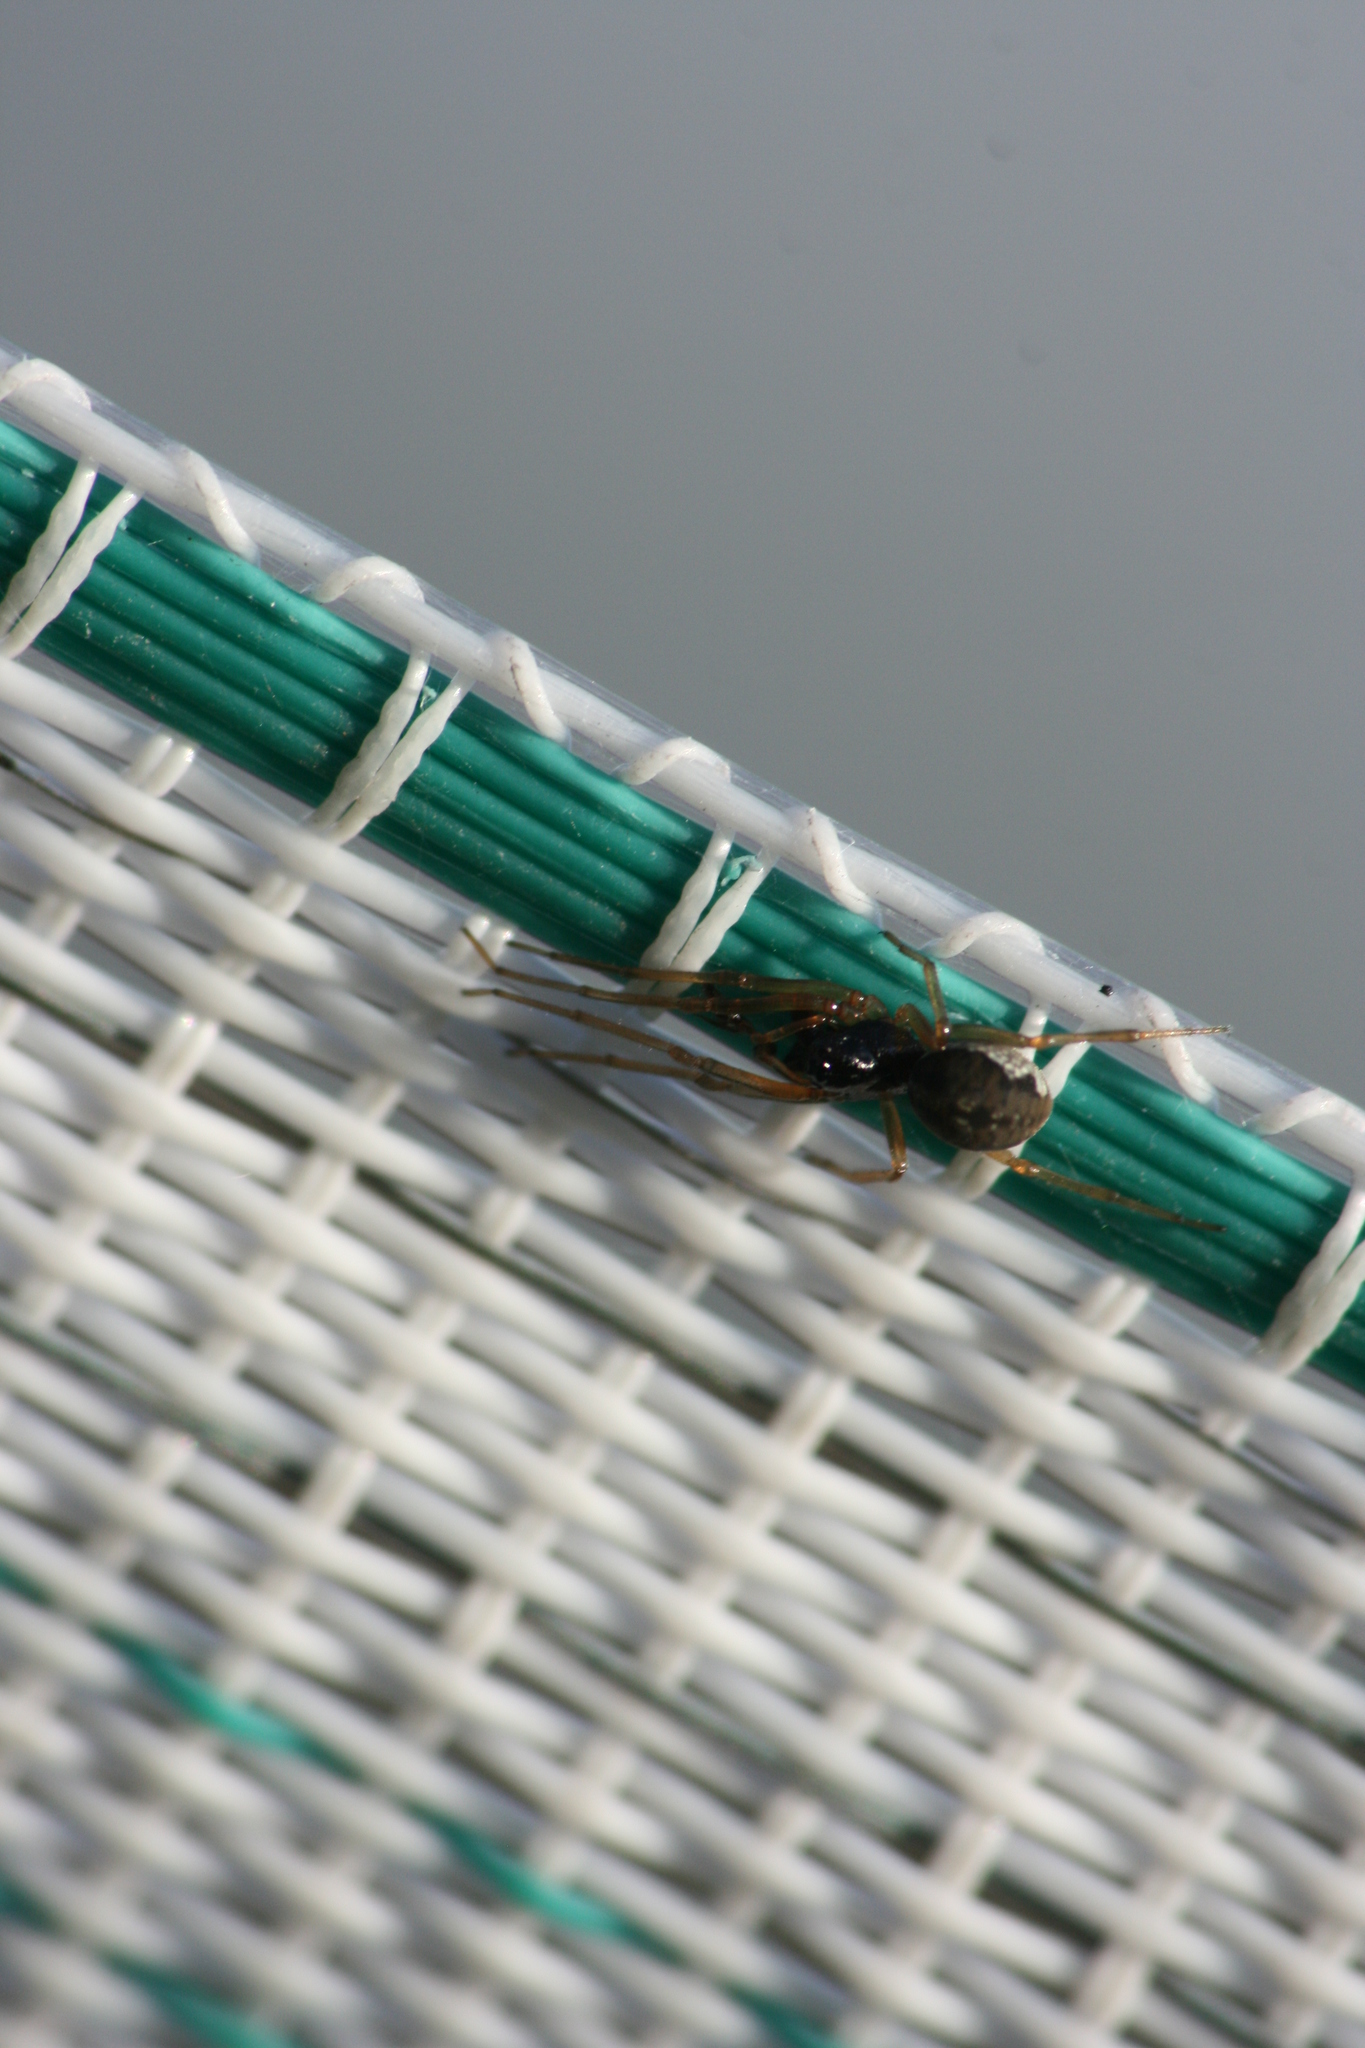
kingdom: Animalia
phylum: Arthropoda
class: Arachnida
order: Araneae
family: Tetragnathidae
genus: Pachygnatha
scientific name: Pachygnatha degeeri
